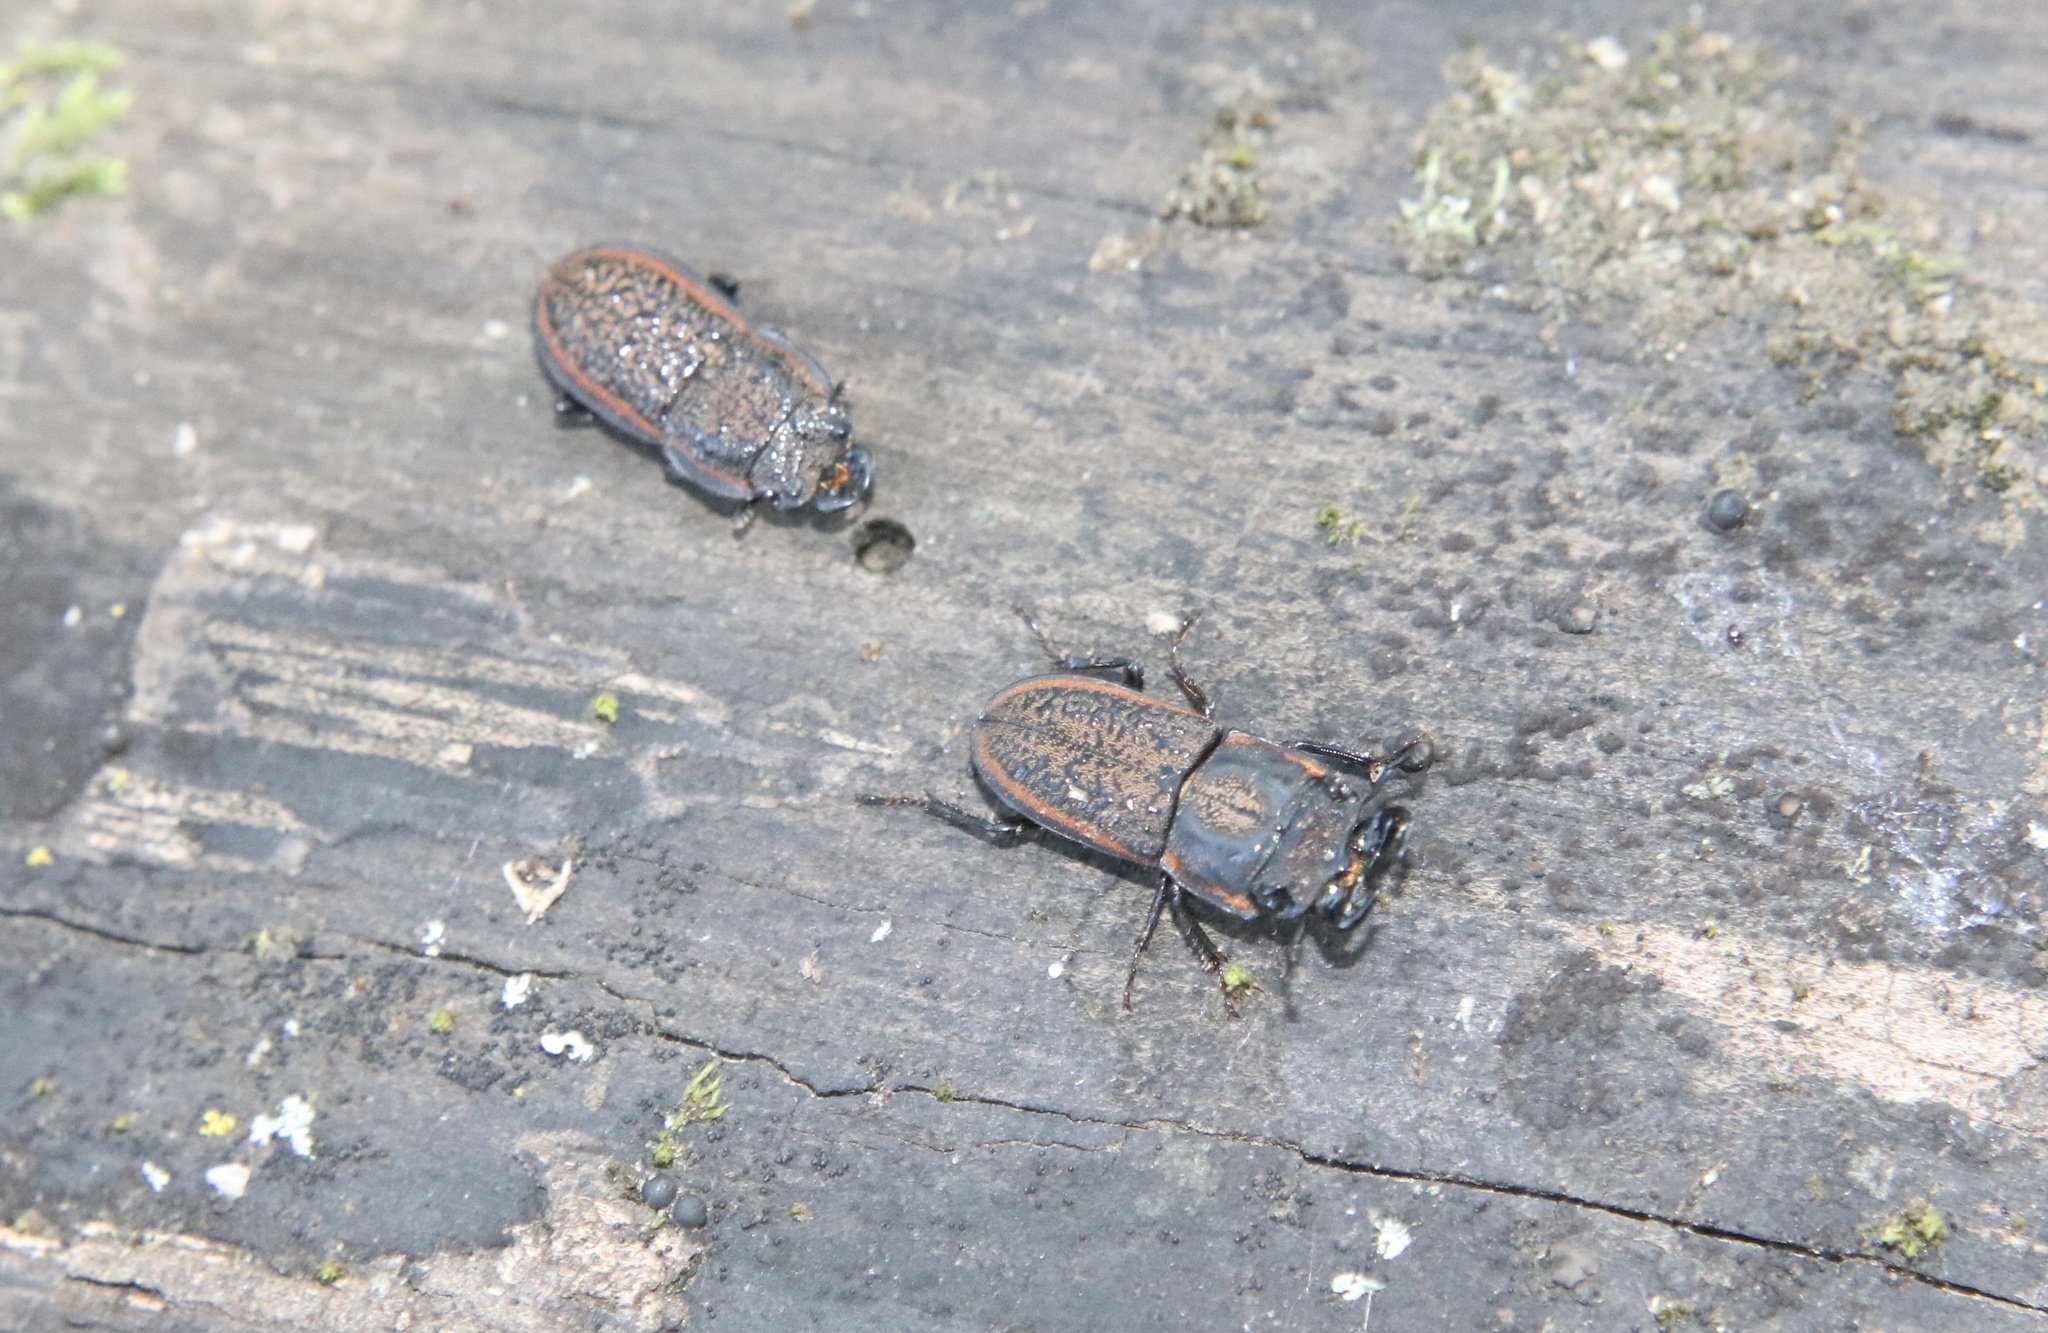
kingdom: Animalia
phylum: Arthropoda
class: Insecta
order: Coleoptera
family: Lucanidae
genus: Erichius
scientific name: Erichius caelatus
